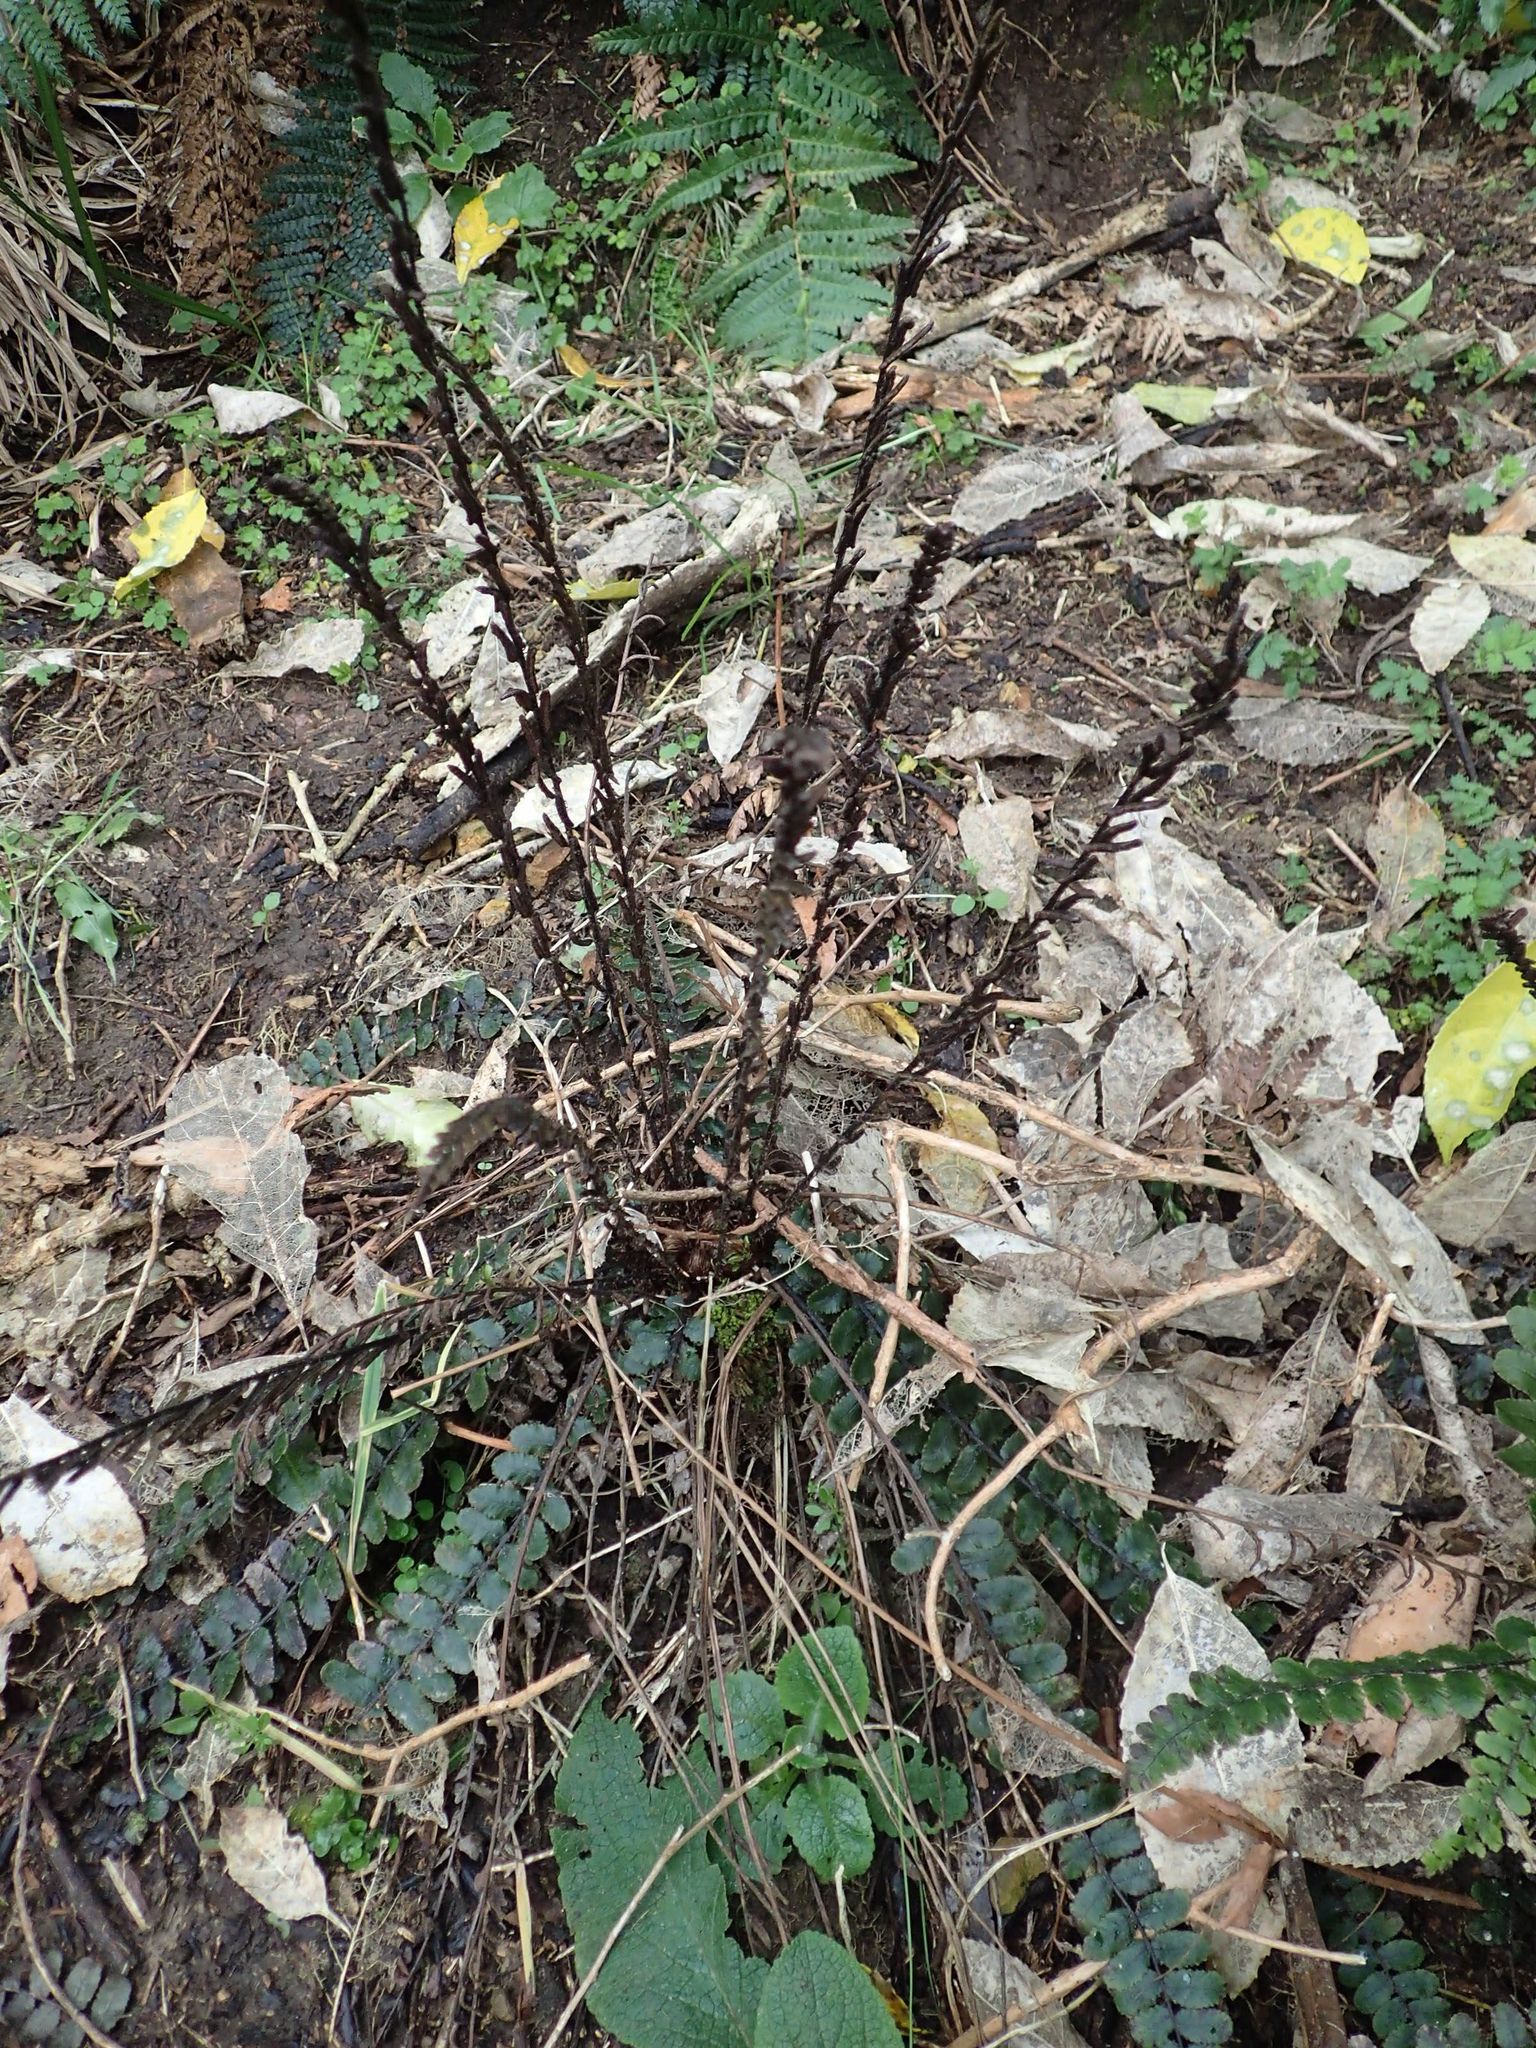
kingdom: Plantae
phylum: Tracheophyta
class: Polypodiopsida
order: Polypodiales
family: Blechnaceae
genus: Cranfillia
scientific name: Cranfillia fluviatilis
